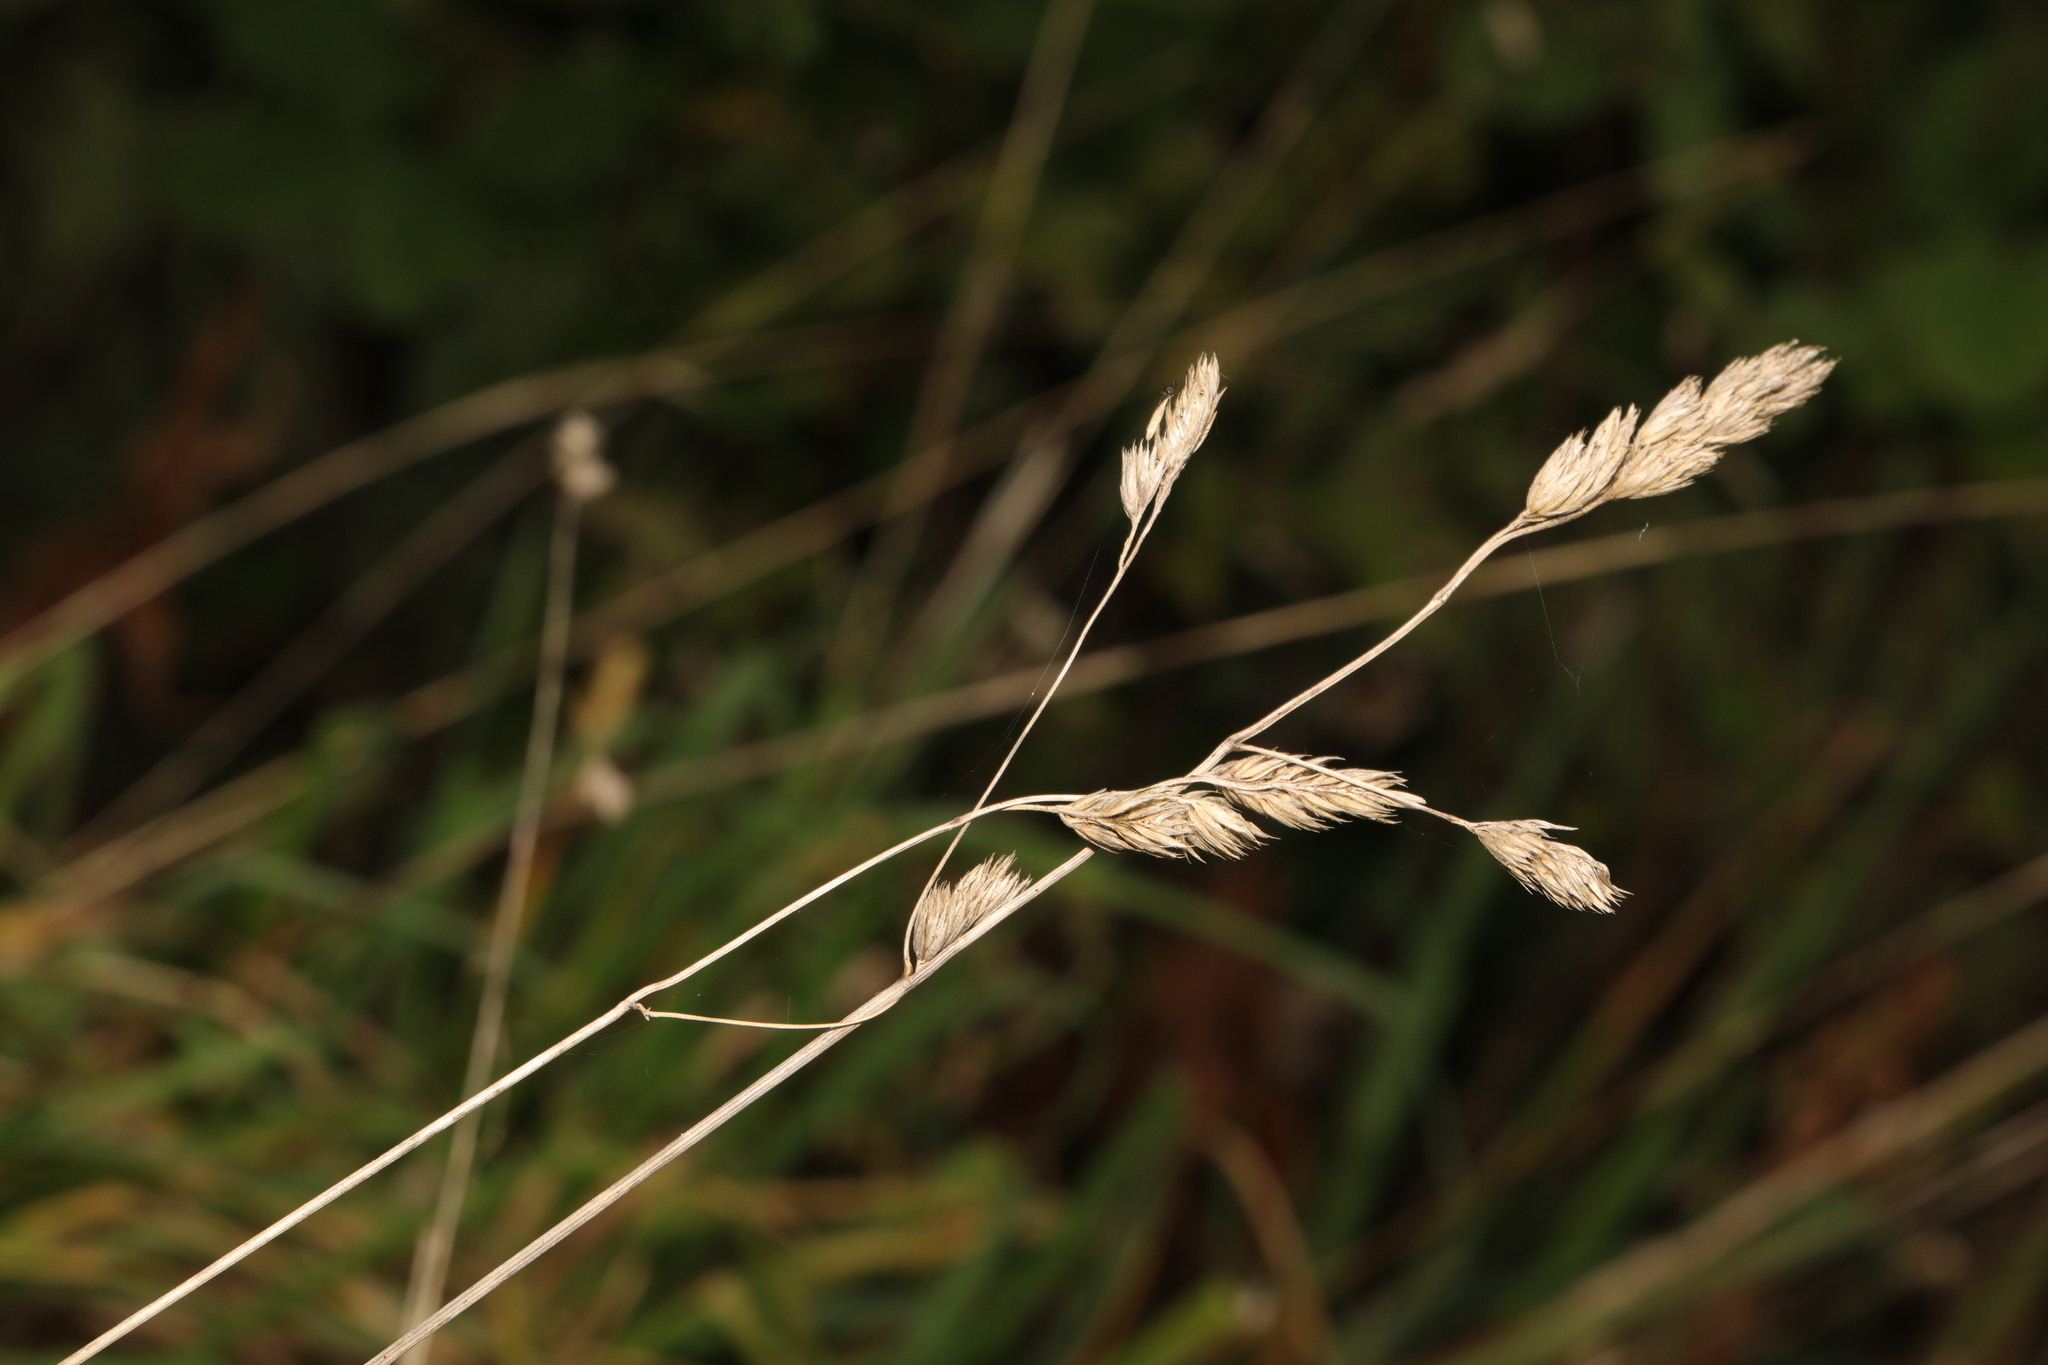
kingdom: Plantae
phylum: Tracheophyta
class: Liliopsida
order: Poales
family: Poaceae
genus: Dactylis
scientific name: Dactylis glomerata
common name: Orchardgrass
